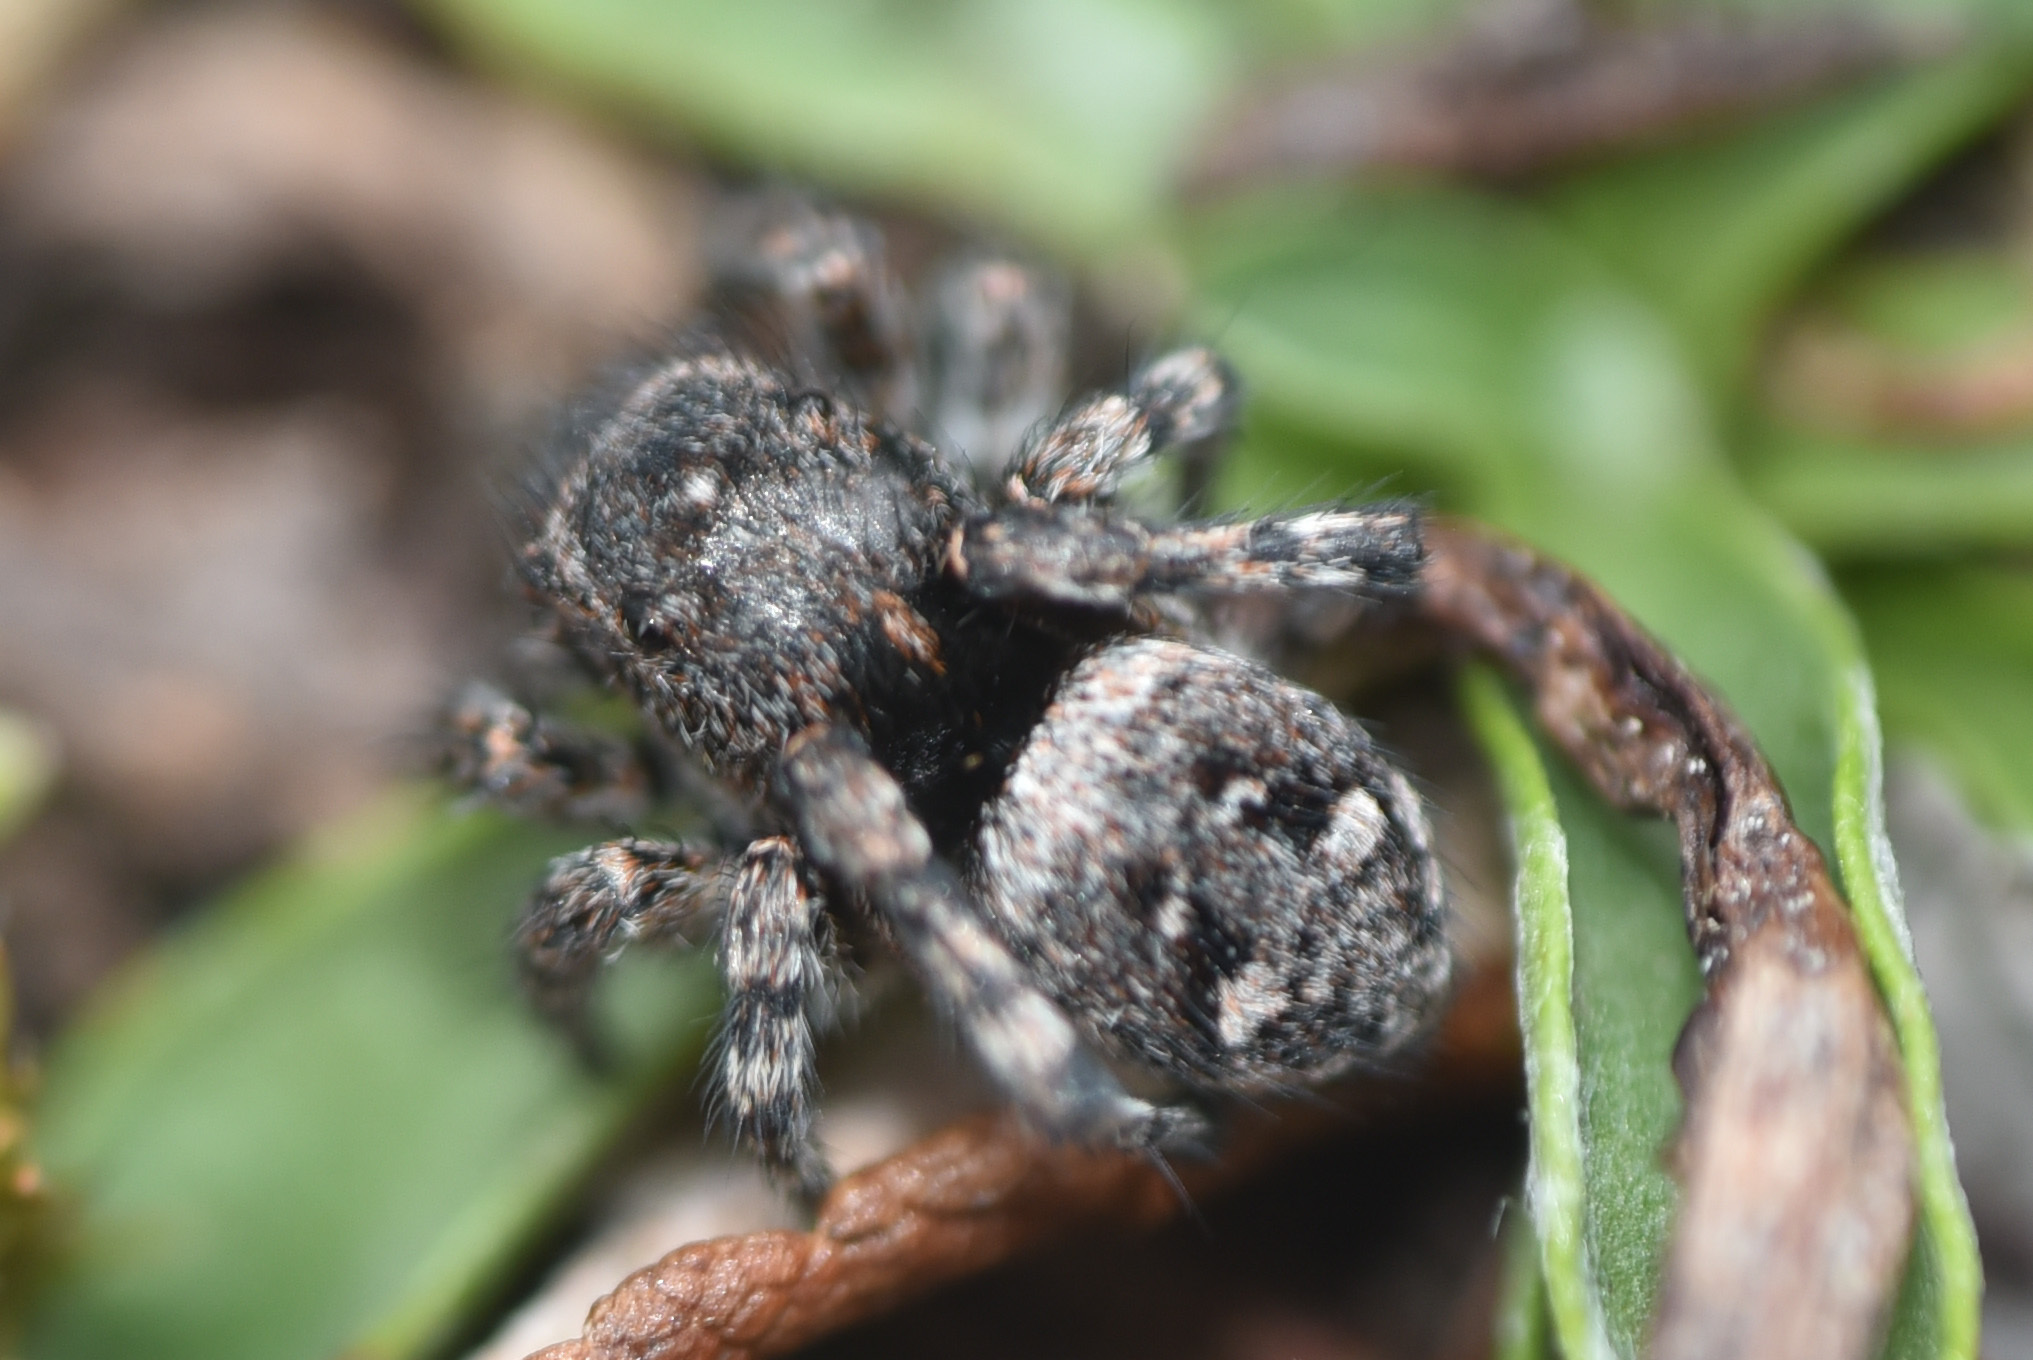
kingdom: Animalia
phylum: Arthropoda
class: Arachnida
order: Araneae
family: Salticidae
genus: Sittisax
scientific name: Sittisax ranieri
